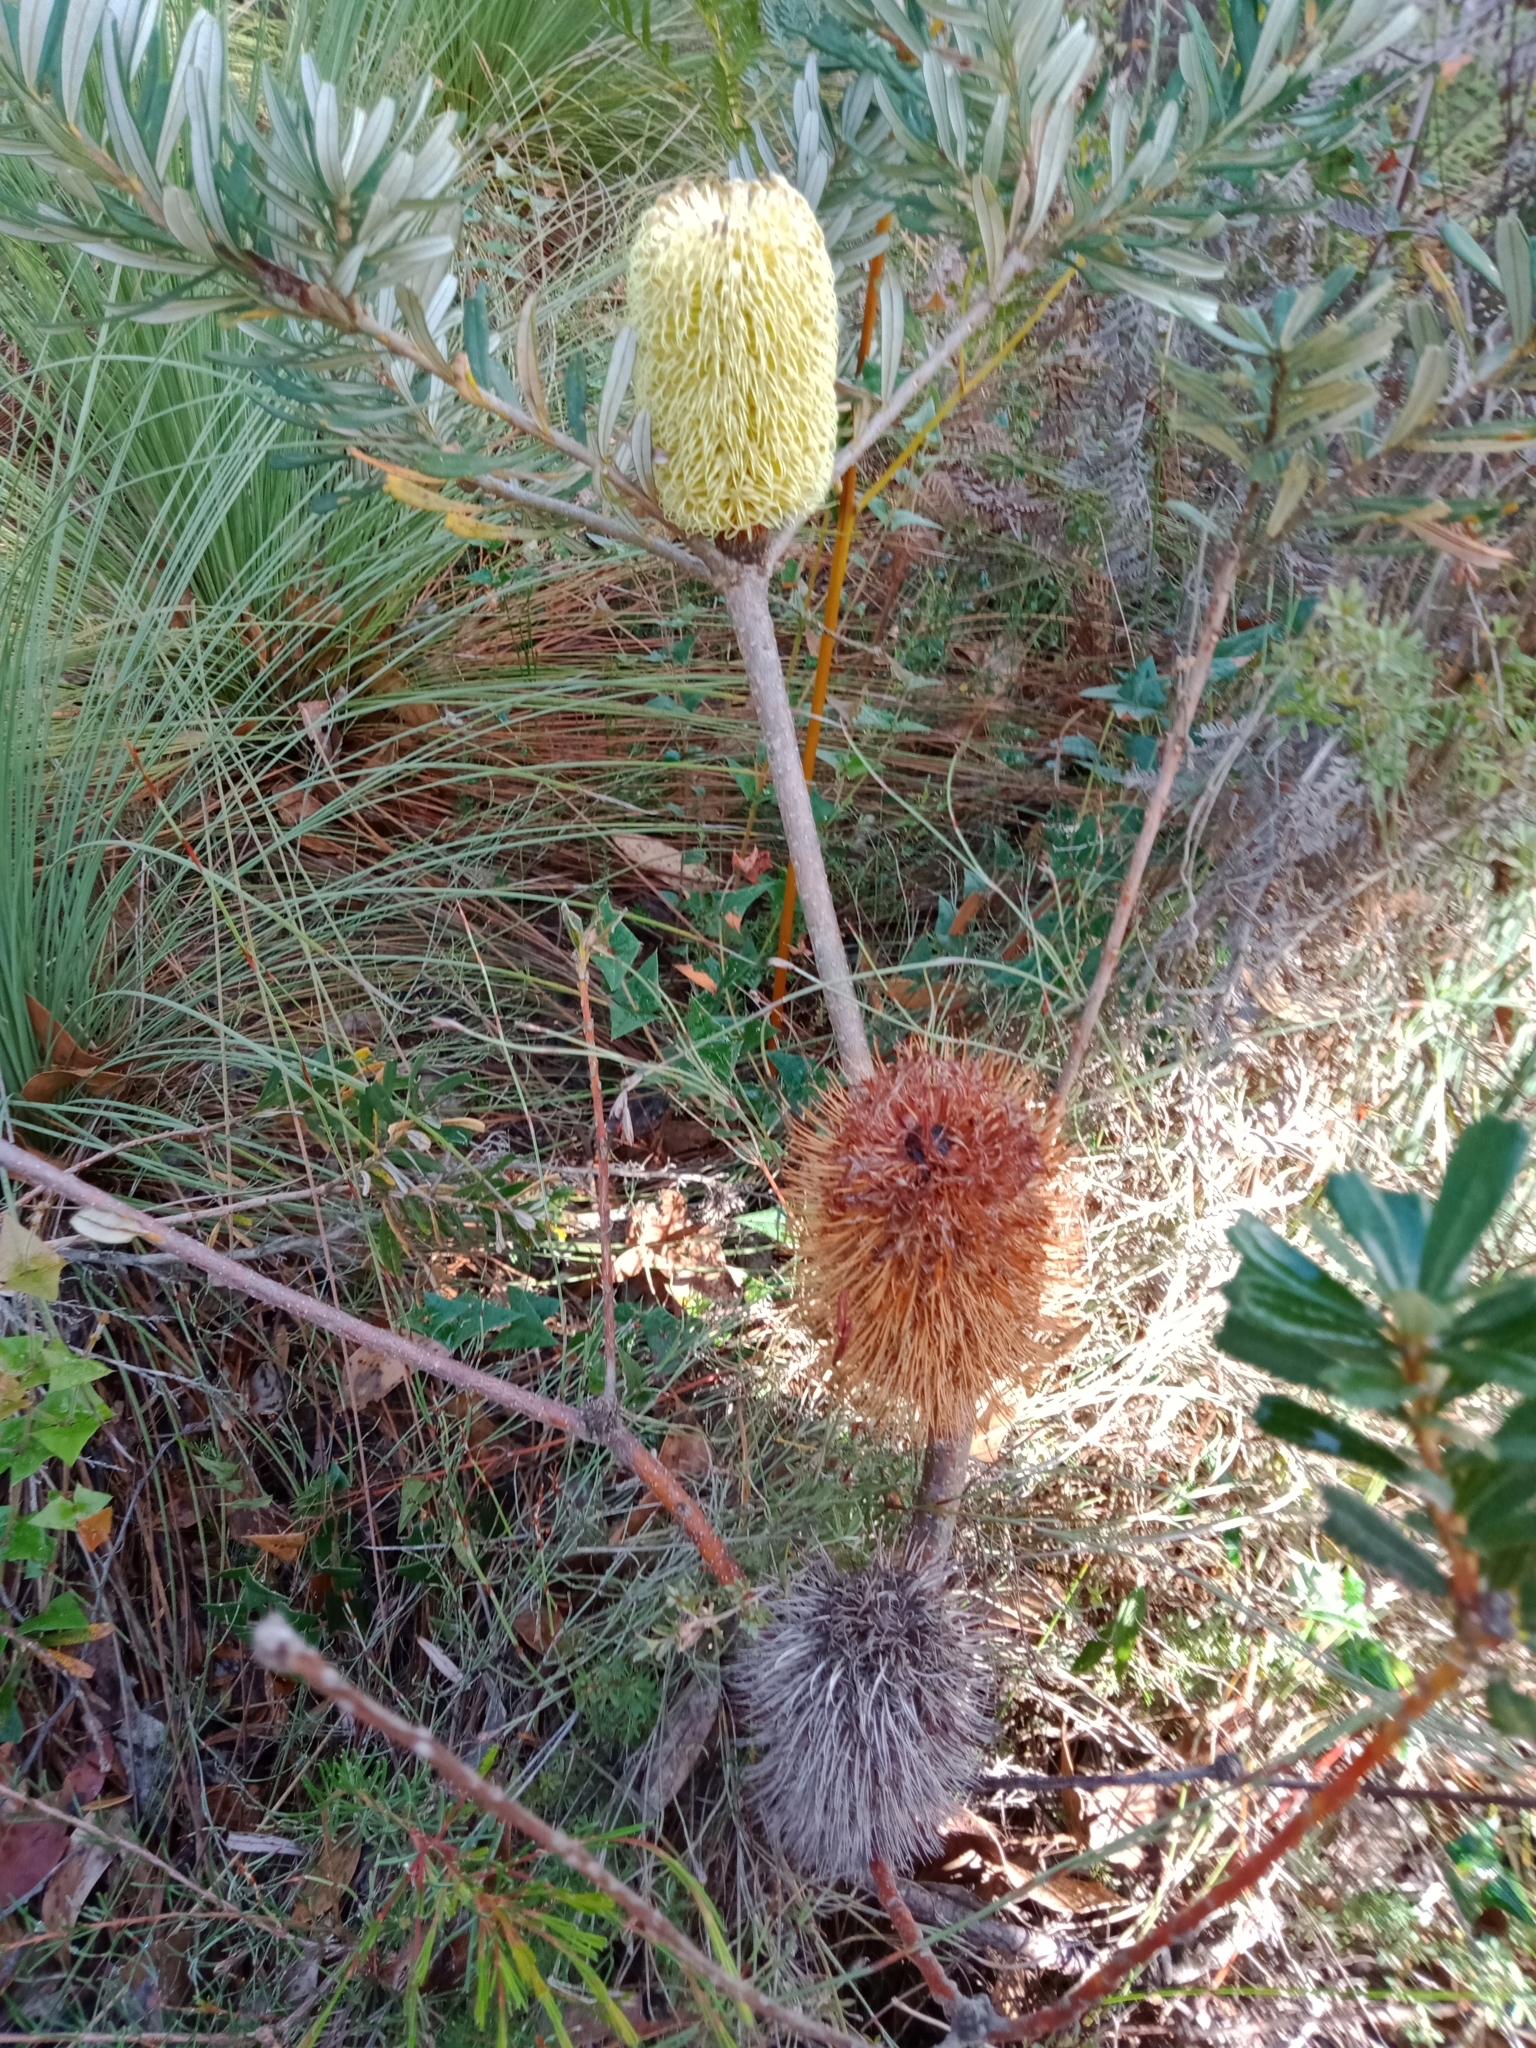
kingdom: Plantae
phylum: Tracheophyta
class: Magnoliopsida
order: Proteales
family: Proteaceae
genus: Banksia
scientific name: Banksia marginata
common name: Silver banksia
